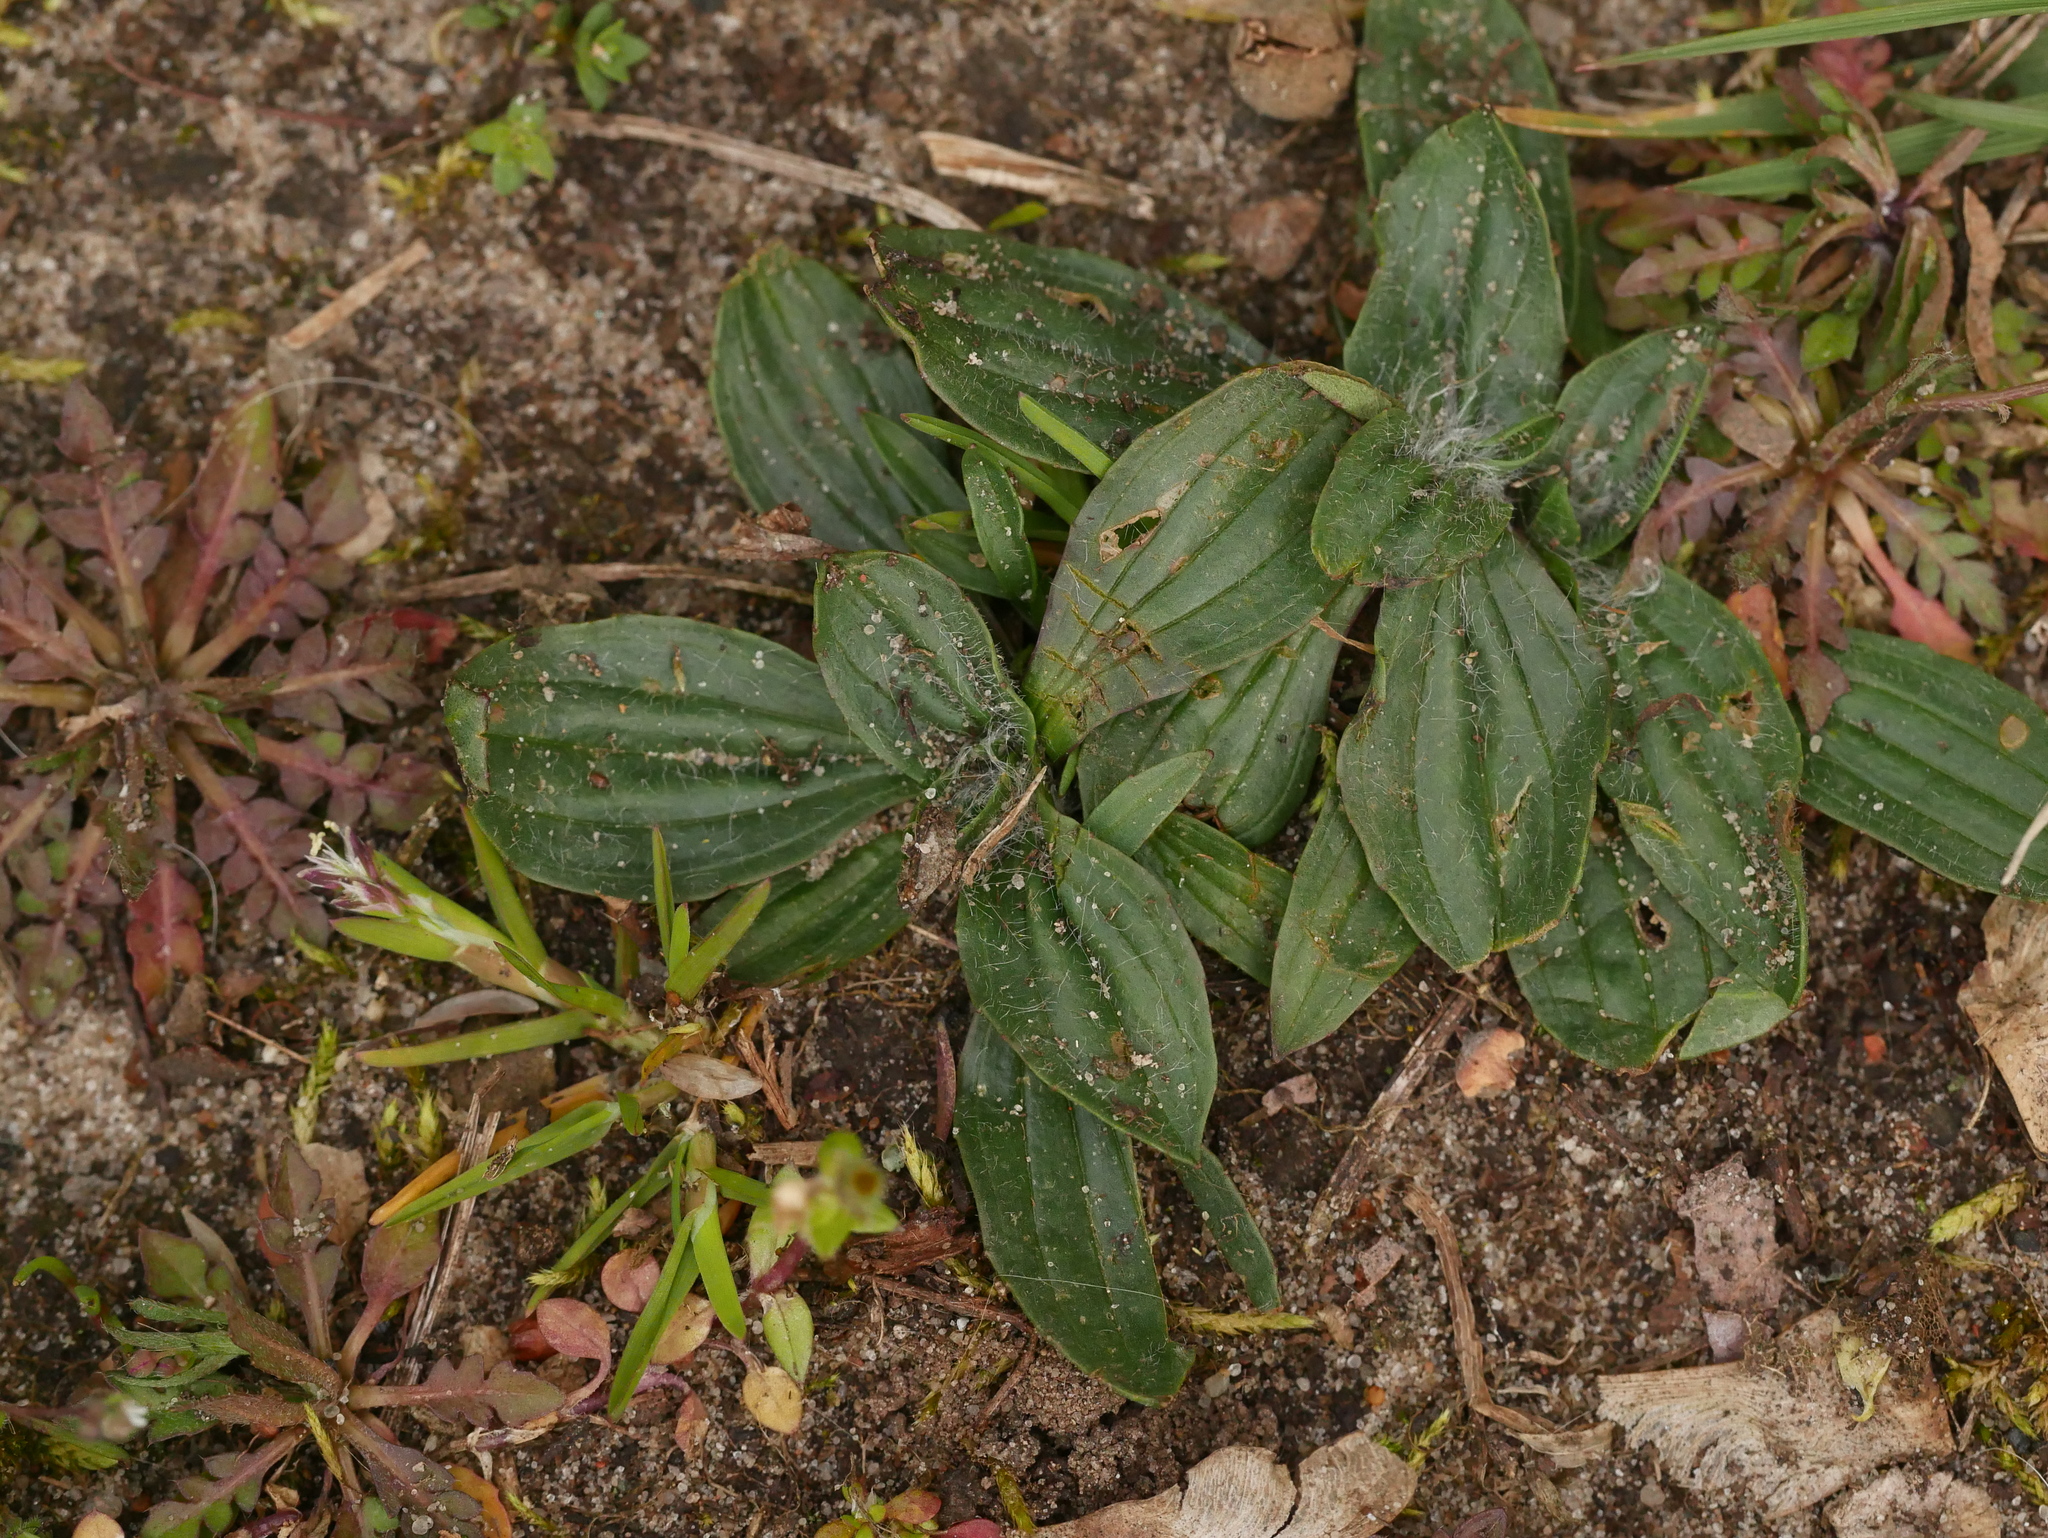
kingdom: Plantae
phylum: Tracheophyta
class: Magnoliopsida
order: Lamiales
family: Plantaginaceae
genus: Plantago
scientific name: Plantago media
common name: Hoary plantain
